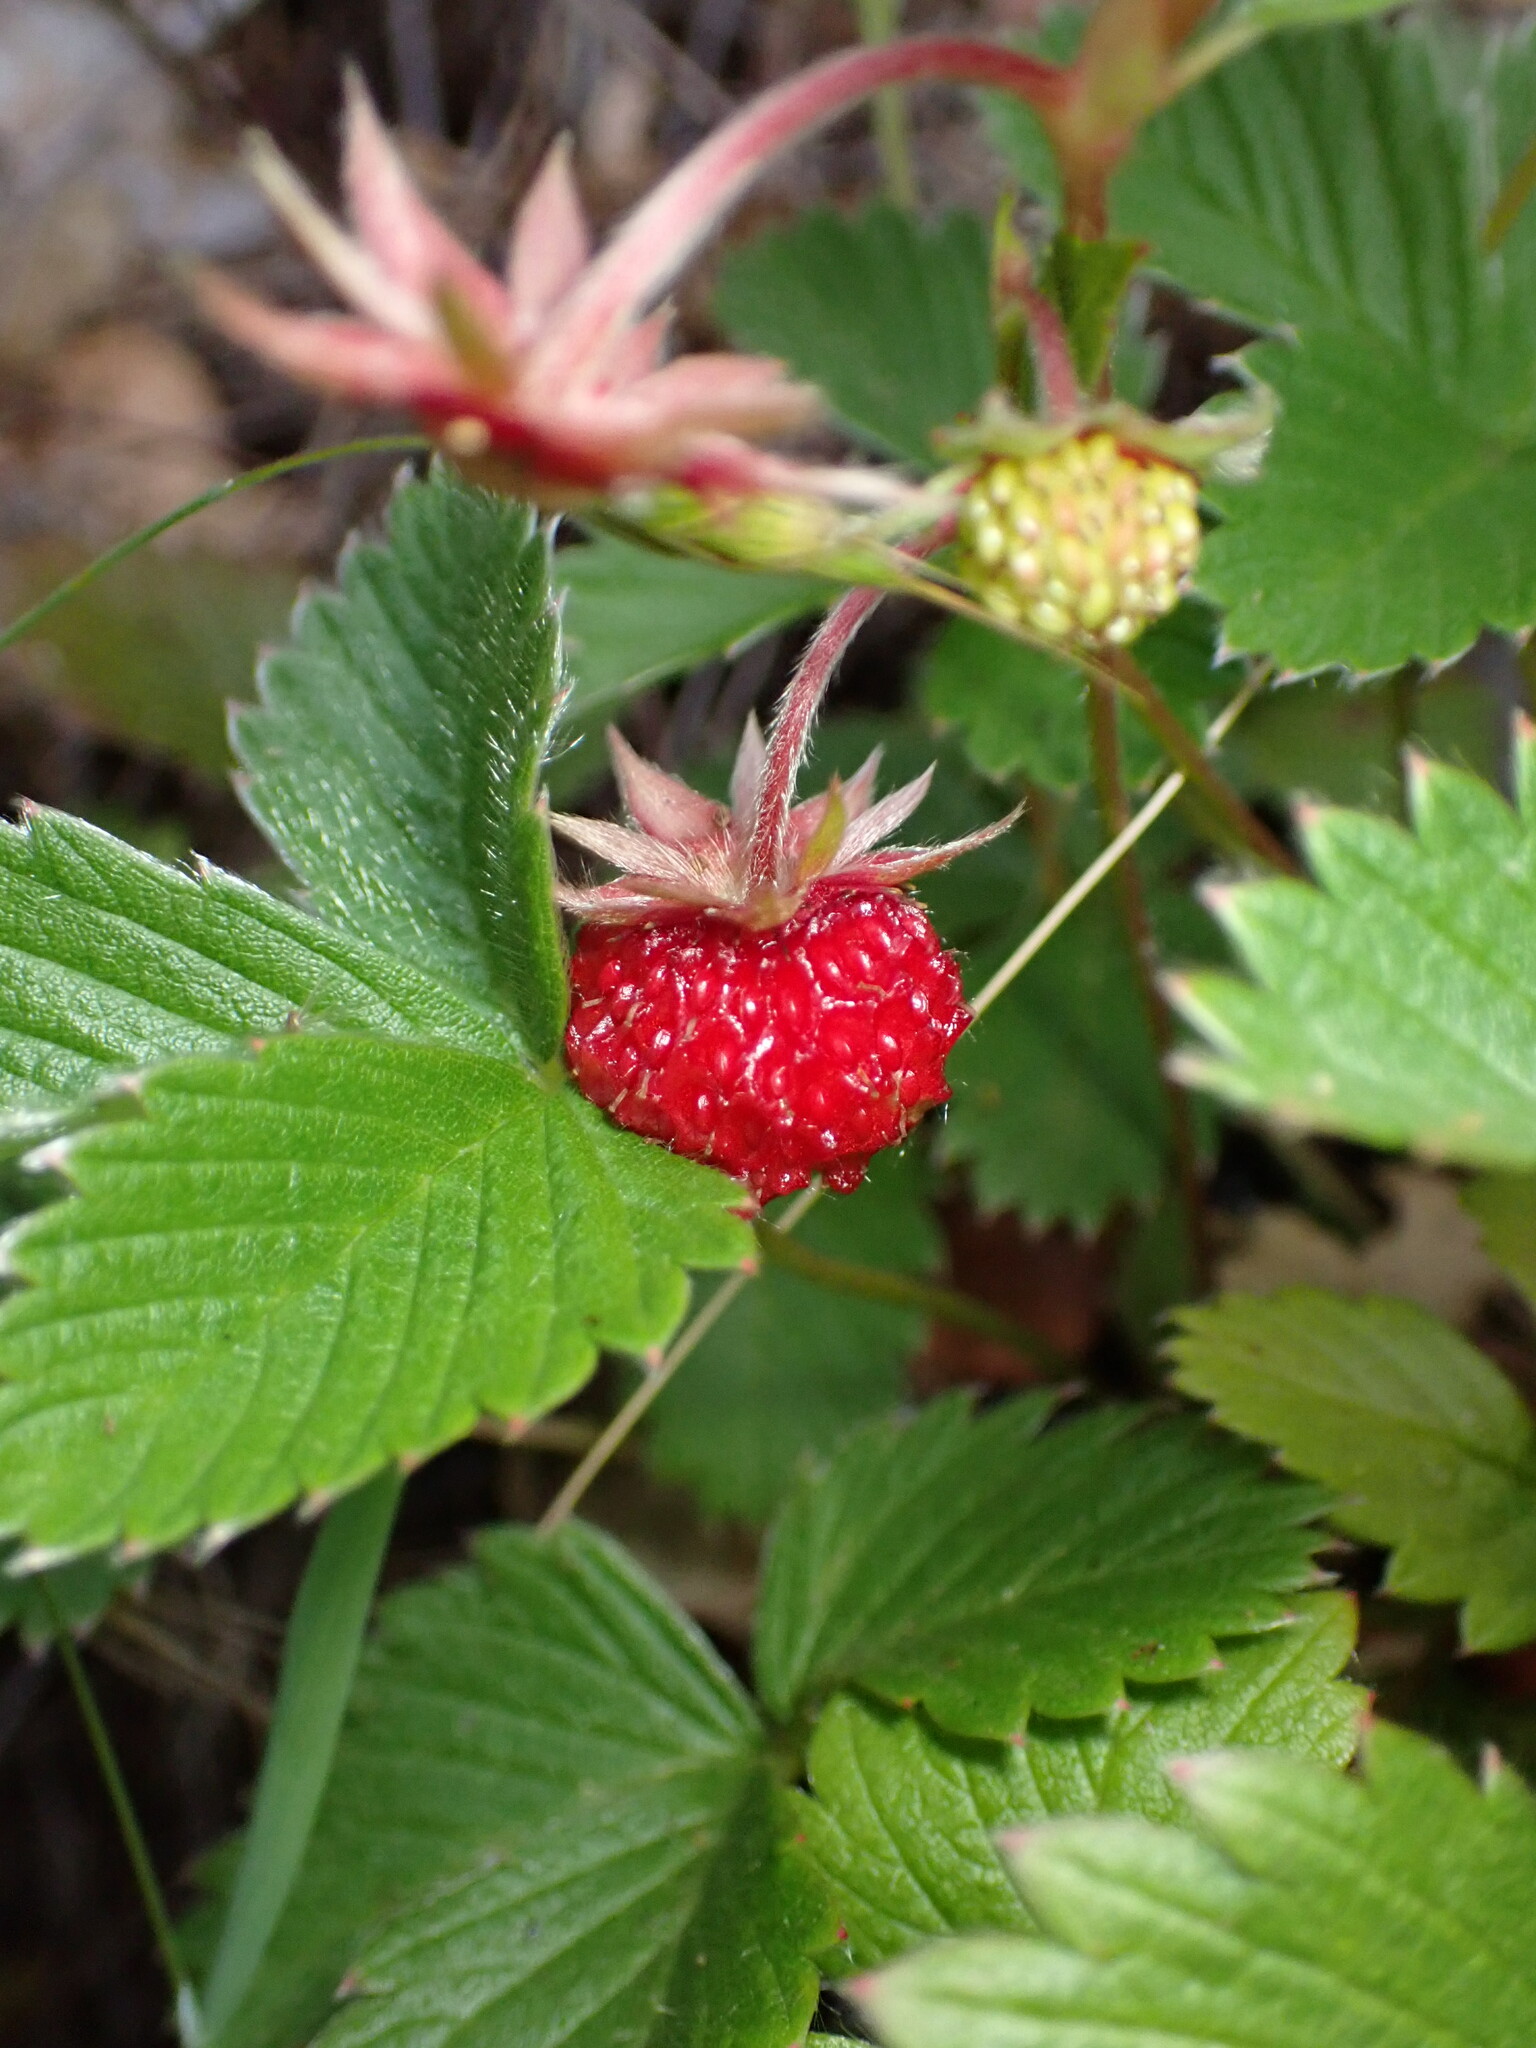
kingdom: Plantae
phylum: Tracheophyta
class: Magnoliopsida
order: Rosales
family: Rosaceae
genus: Fragaria
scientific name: Fragaria vesca
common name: Wild strawberry
